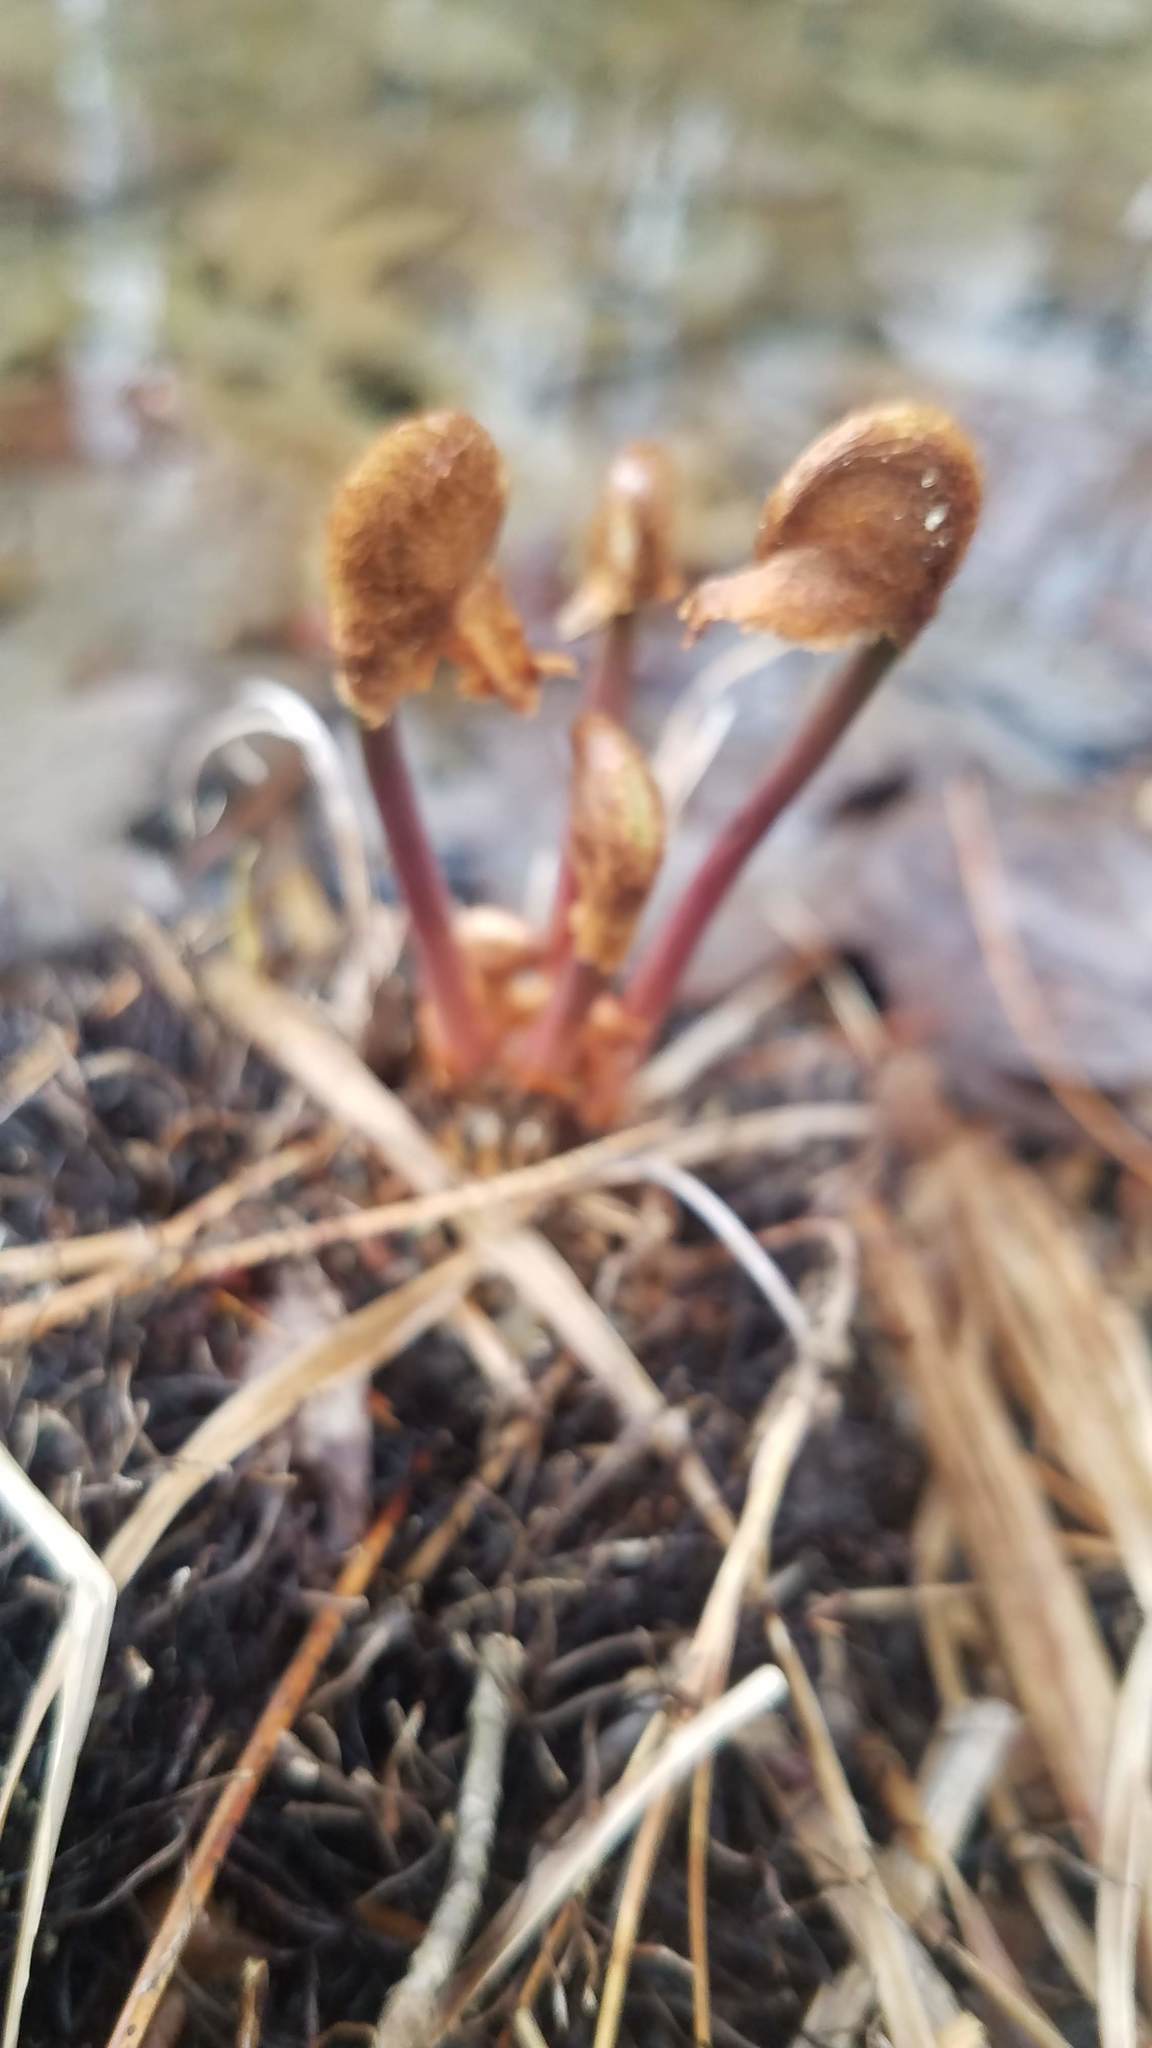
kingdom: Plantae
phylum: Tracheophyta
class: Polypodiopsida
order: Osmundales
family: Osmundaceae
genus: Osmunda
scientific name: Osmunda spectabilis
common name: American royal fern
